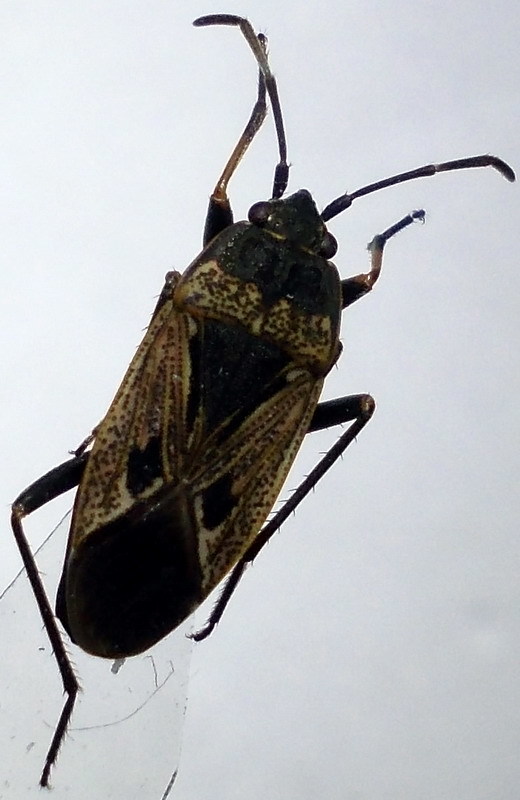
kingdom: Animalia
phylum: Arthropoda
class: Insecta
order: Hemiptera
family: Rhyparochromidae
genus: Rhyparochromus
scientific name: Rhyparochromus pini
